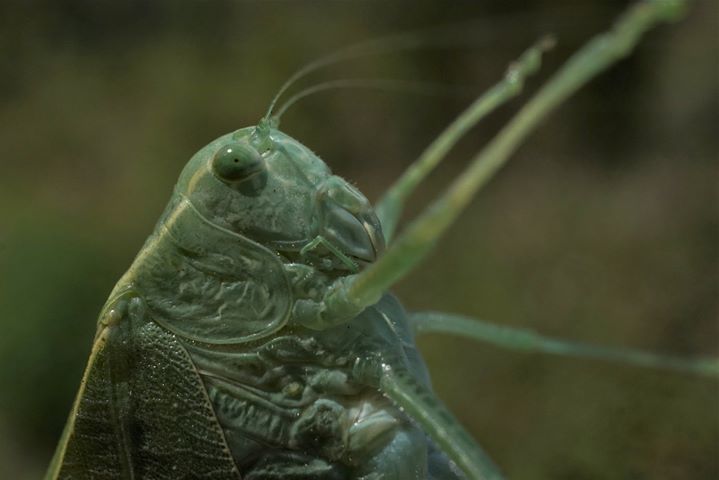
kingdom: Animalia
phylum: Arthropoda
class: Insecta
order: Orthoptera
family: Tettigoniidae
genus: Microcentrum
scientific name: Microcentrum rhombifolium
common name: Broad-winged katydid
